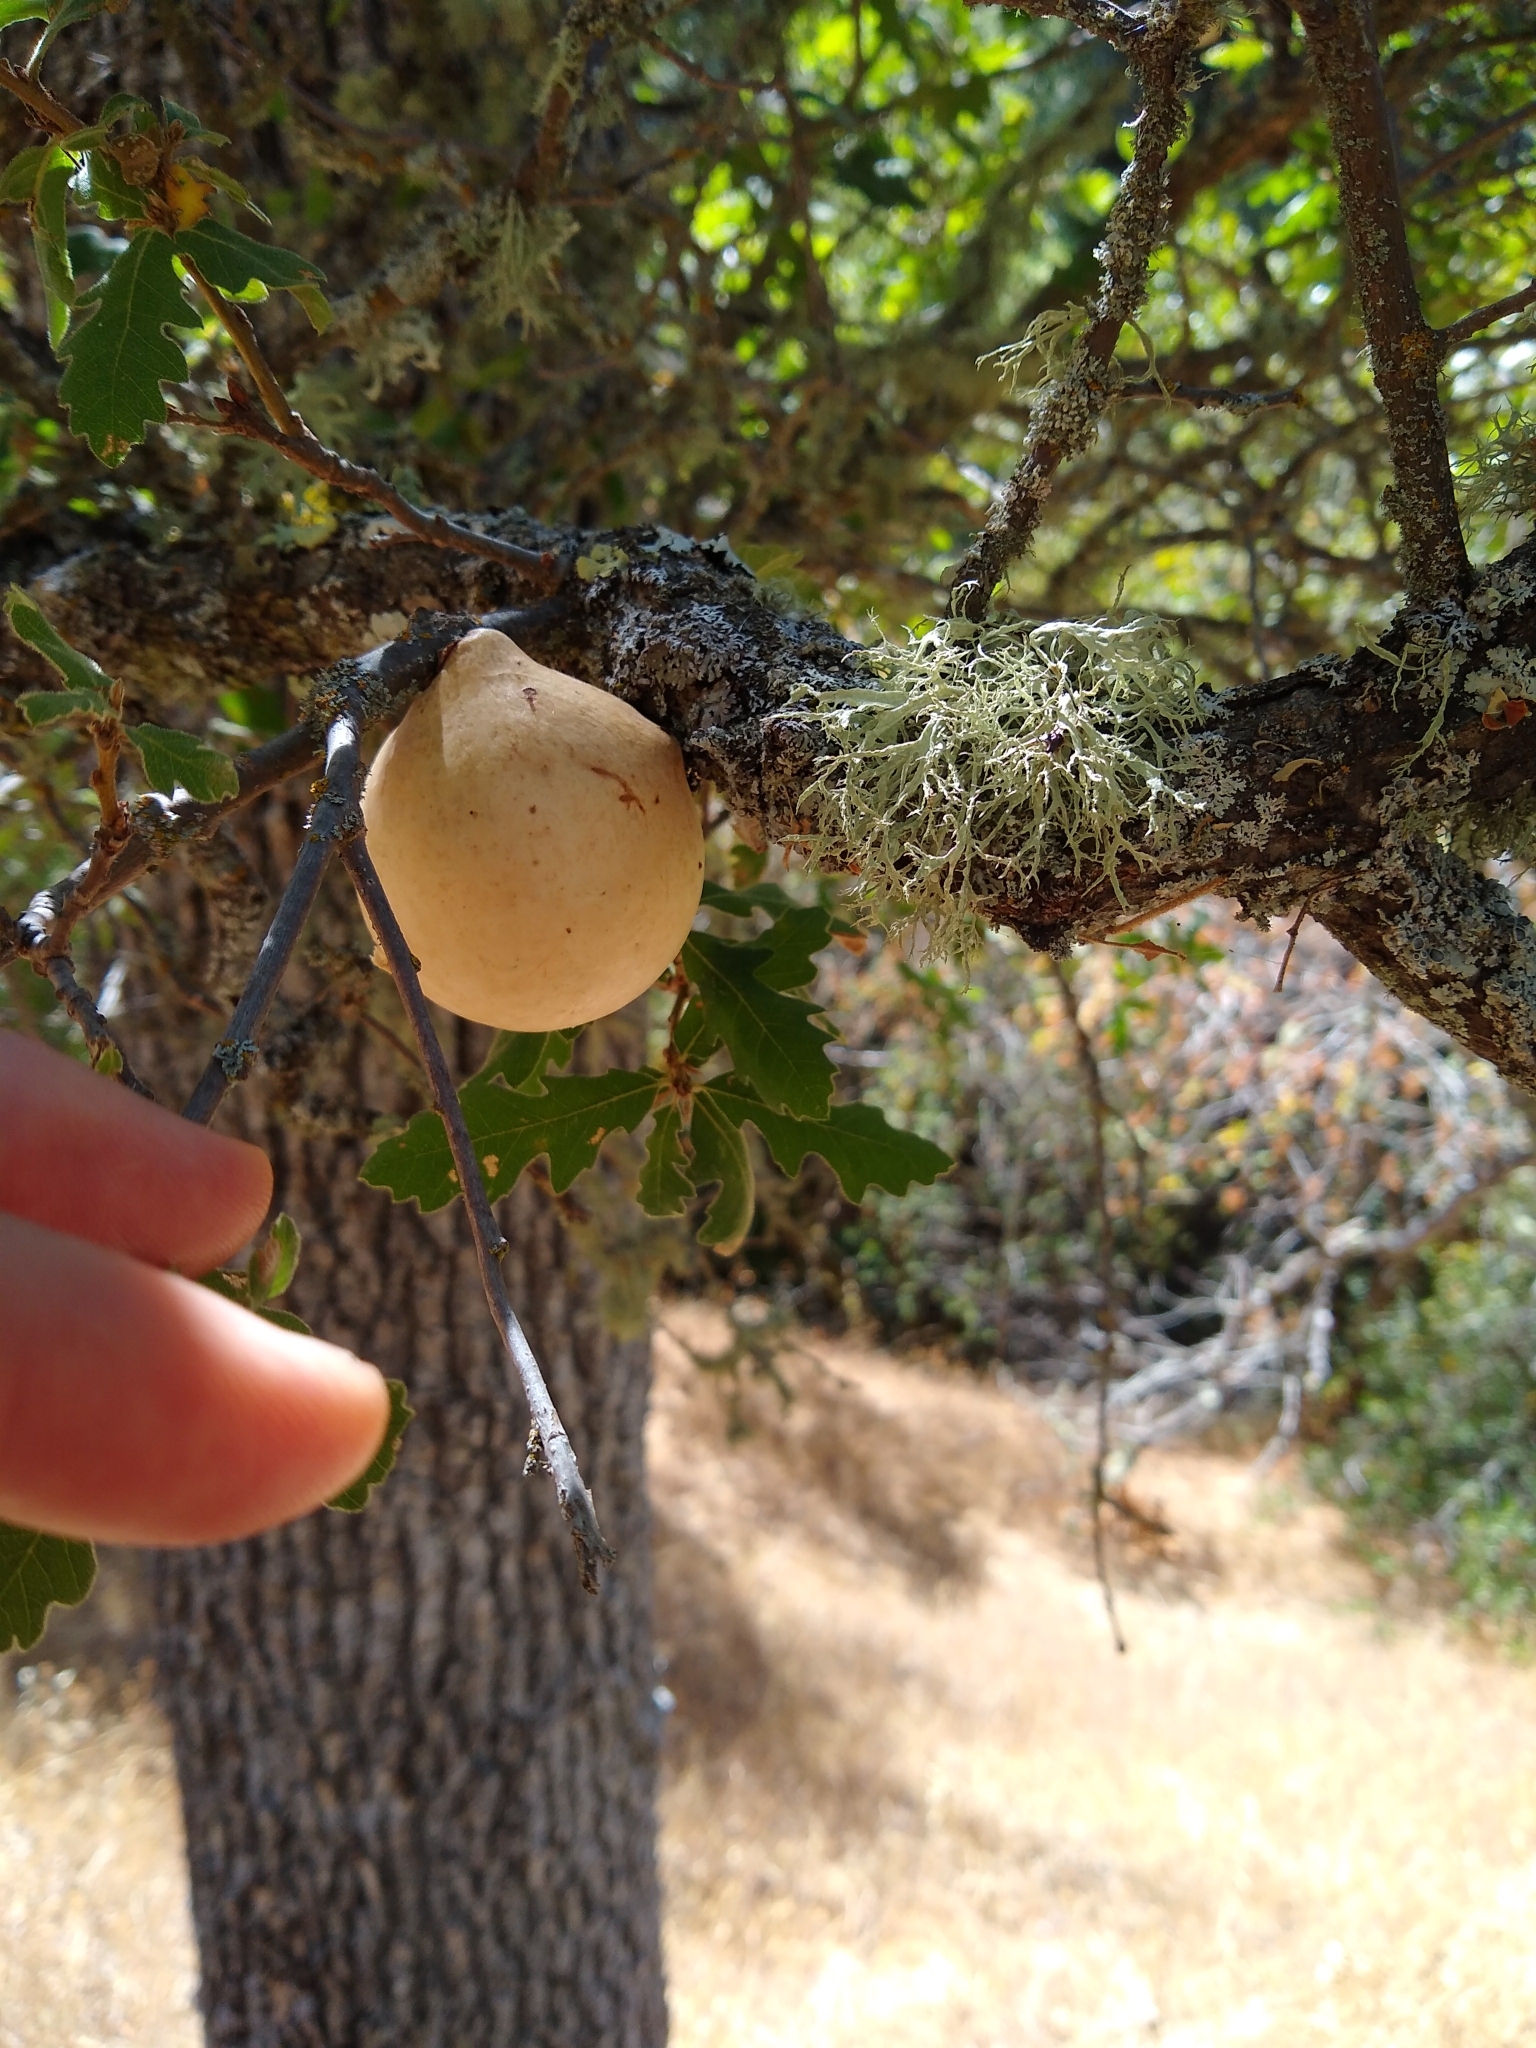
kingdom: Animalia
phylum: Arthropoda
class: Insecta
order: Hymenoptera
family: Cynipidae
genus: Andricus
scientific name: Andricus quercuscalifornicus
